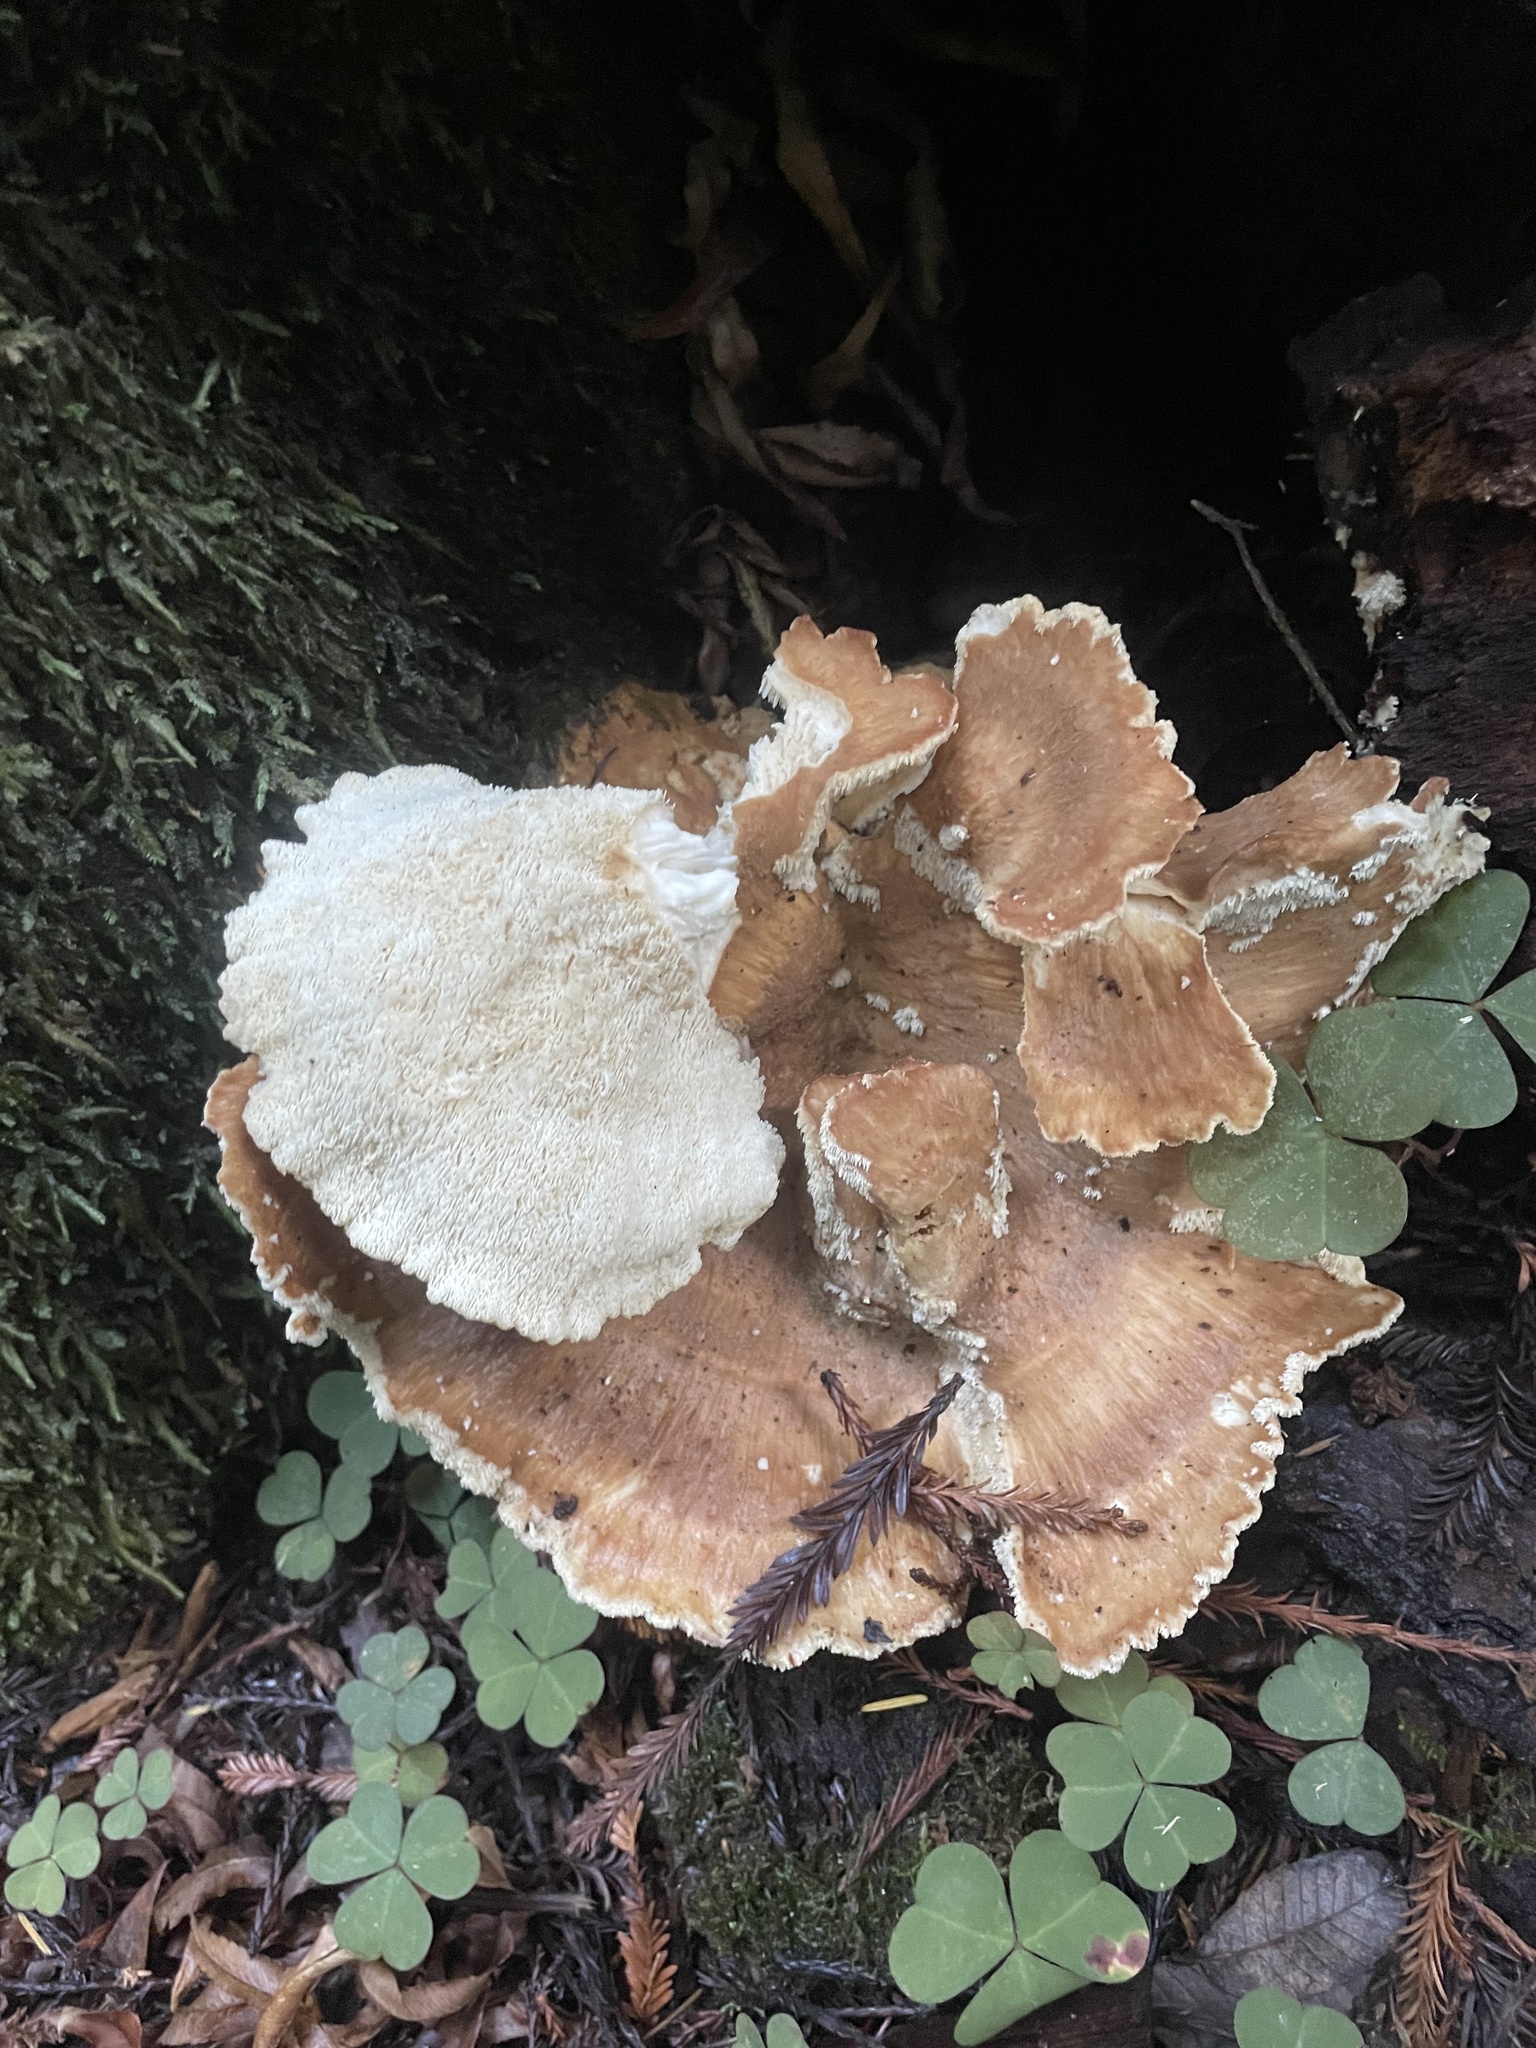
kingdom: Fungi
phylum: Basidiomycota
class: Agaricomycetes
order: Russulales
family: Bondarzewiaceae
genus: Bondarzewia
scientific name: Bondarzewia occidentalis
